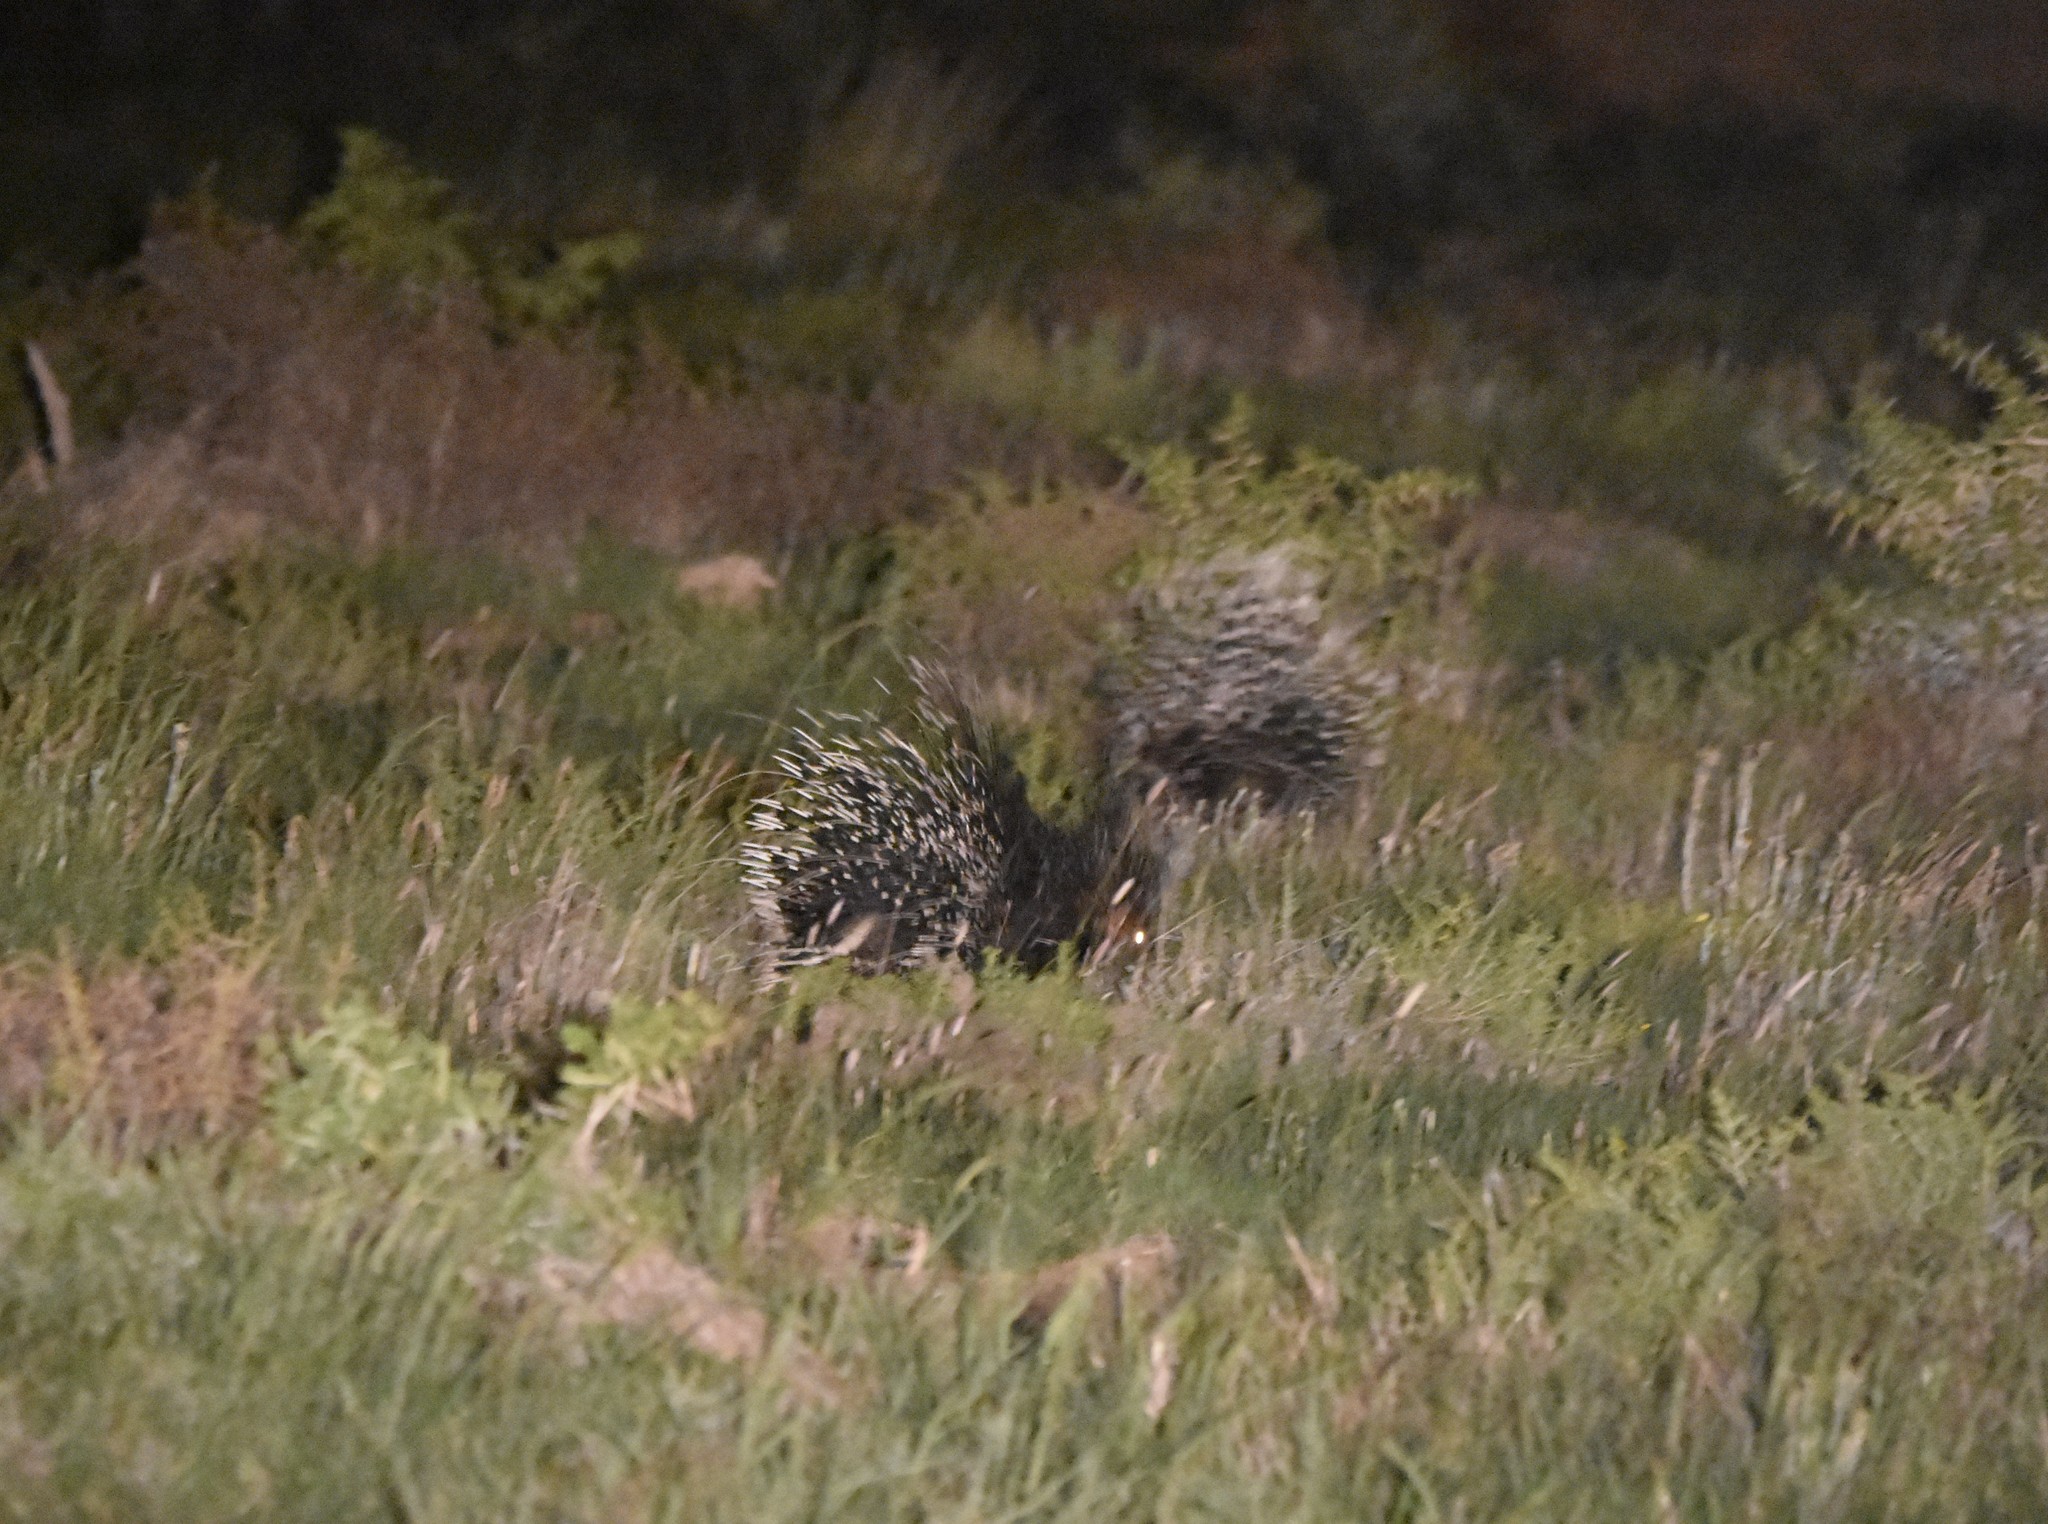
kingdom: Animalia
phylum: Chordata
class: Mammalia
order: Rodentia
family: Hystricidae
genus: Hystrix
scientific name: Hystrix africaeaustralis
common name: Cape porcupine
